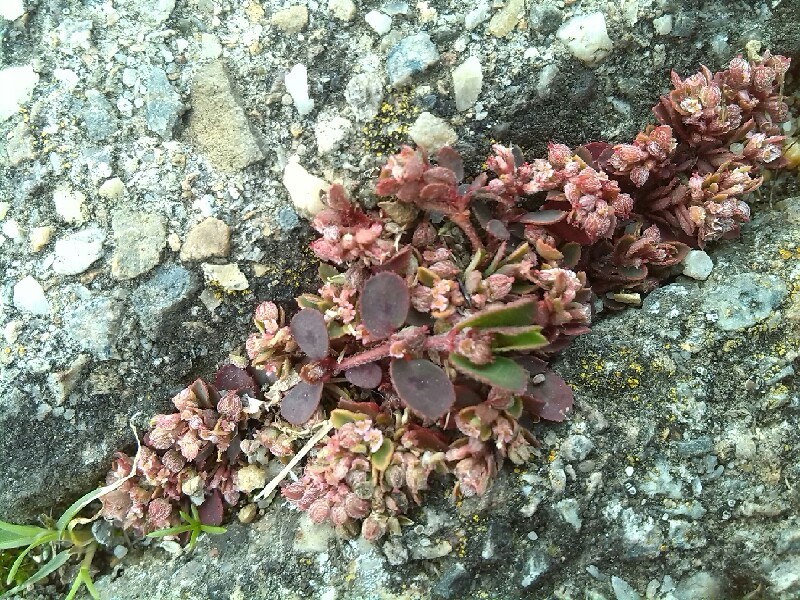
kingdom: Plantae
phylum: Tracheophyta
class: Magnoliopsida
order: Malpighiales
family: Euphorbiaceae
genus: Euphorbia
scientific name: Euphorbia maculata
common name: Spotted spurge
